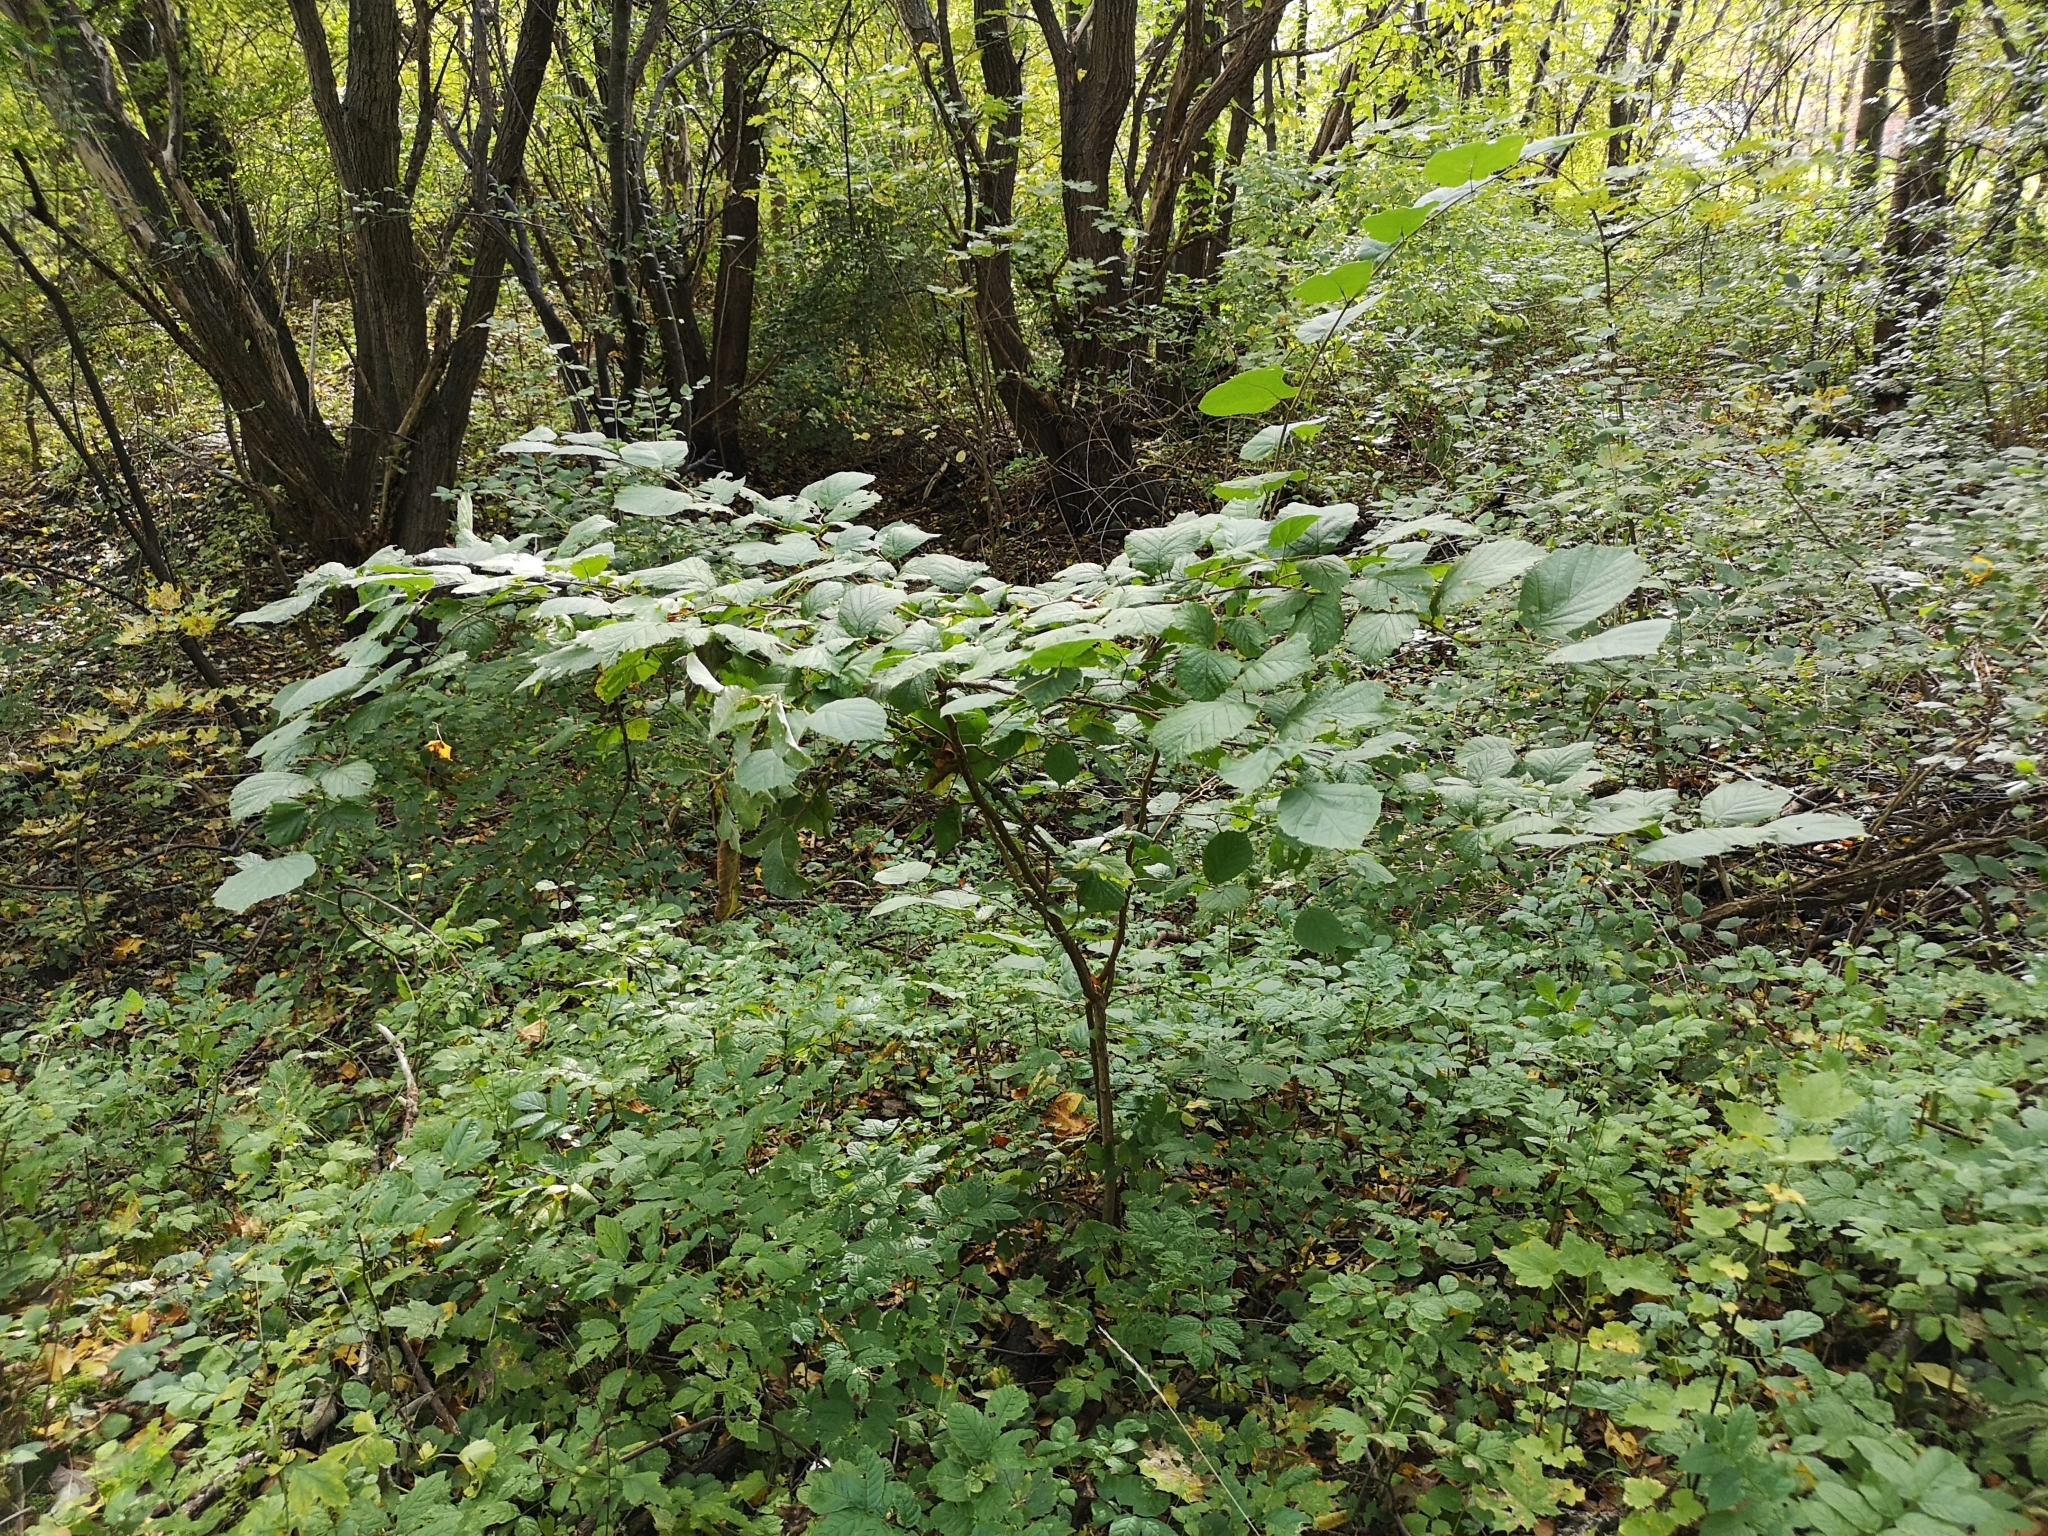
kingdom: Plantae
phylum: Tracheophyta
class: Magnoliopsida
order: Fagales
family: Betulaceae
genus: Corylus
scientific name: Corylus avellana
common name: European hazel
